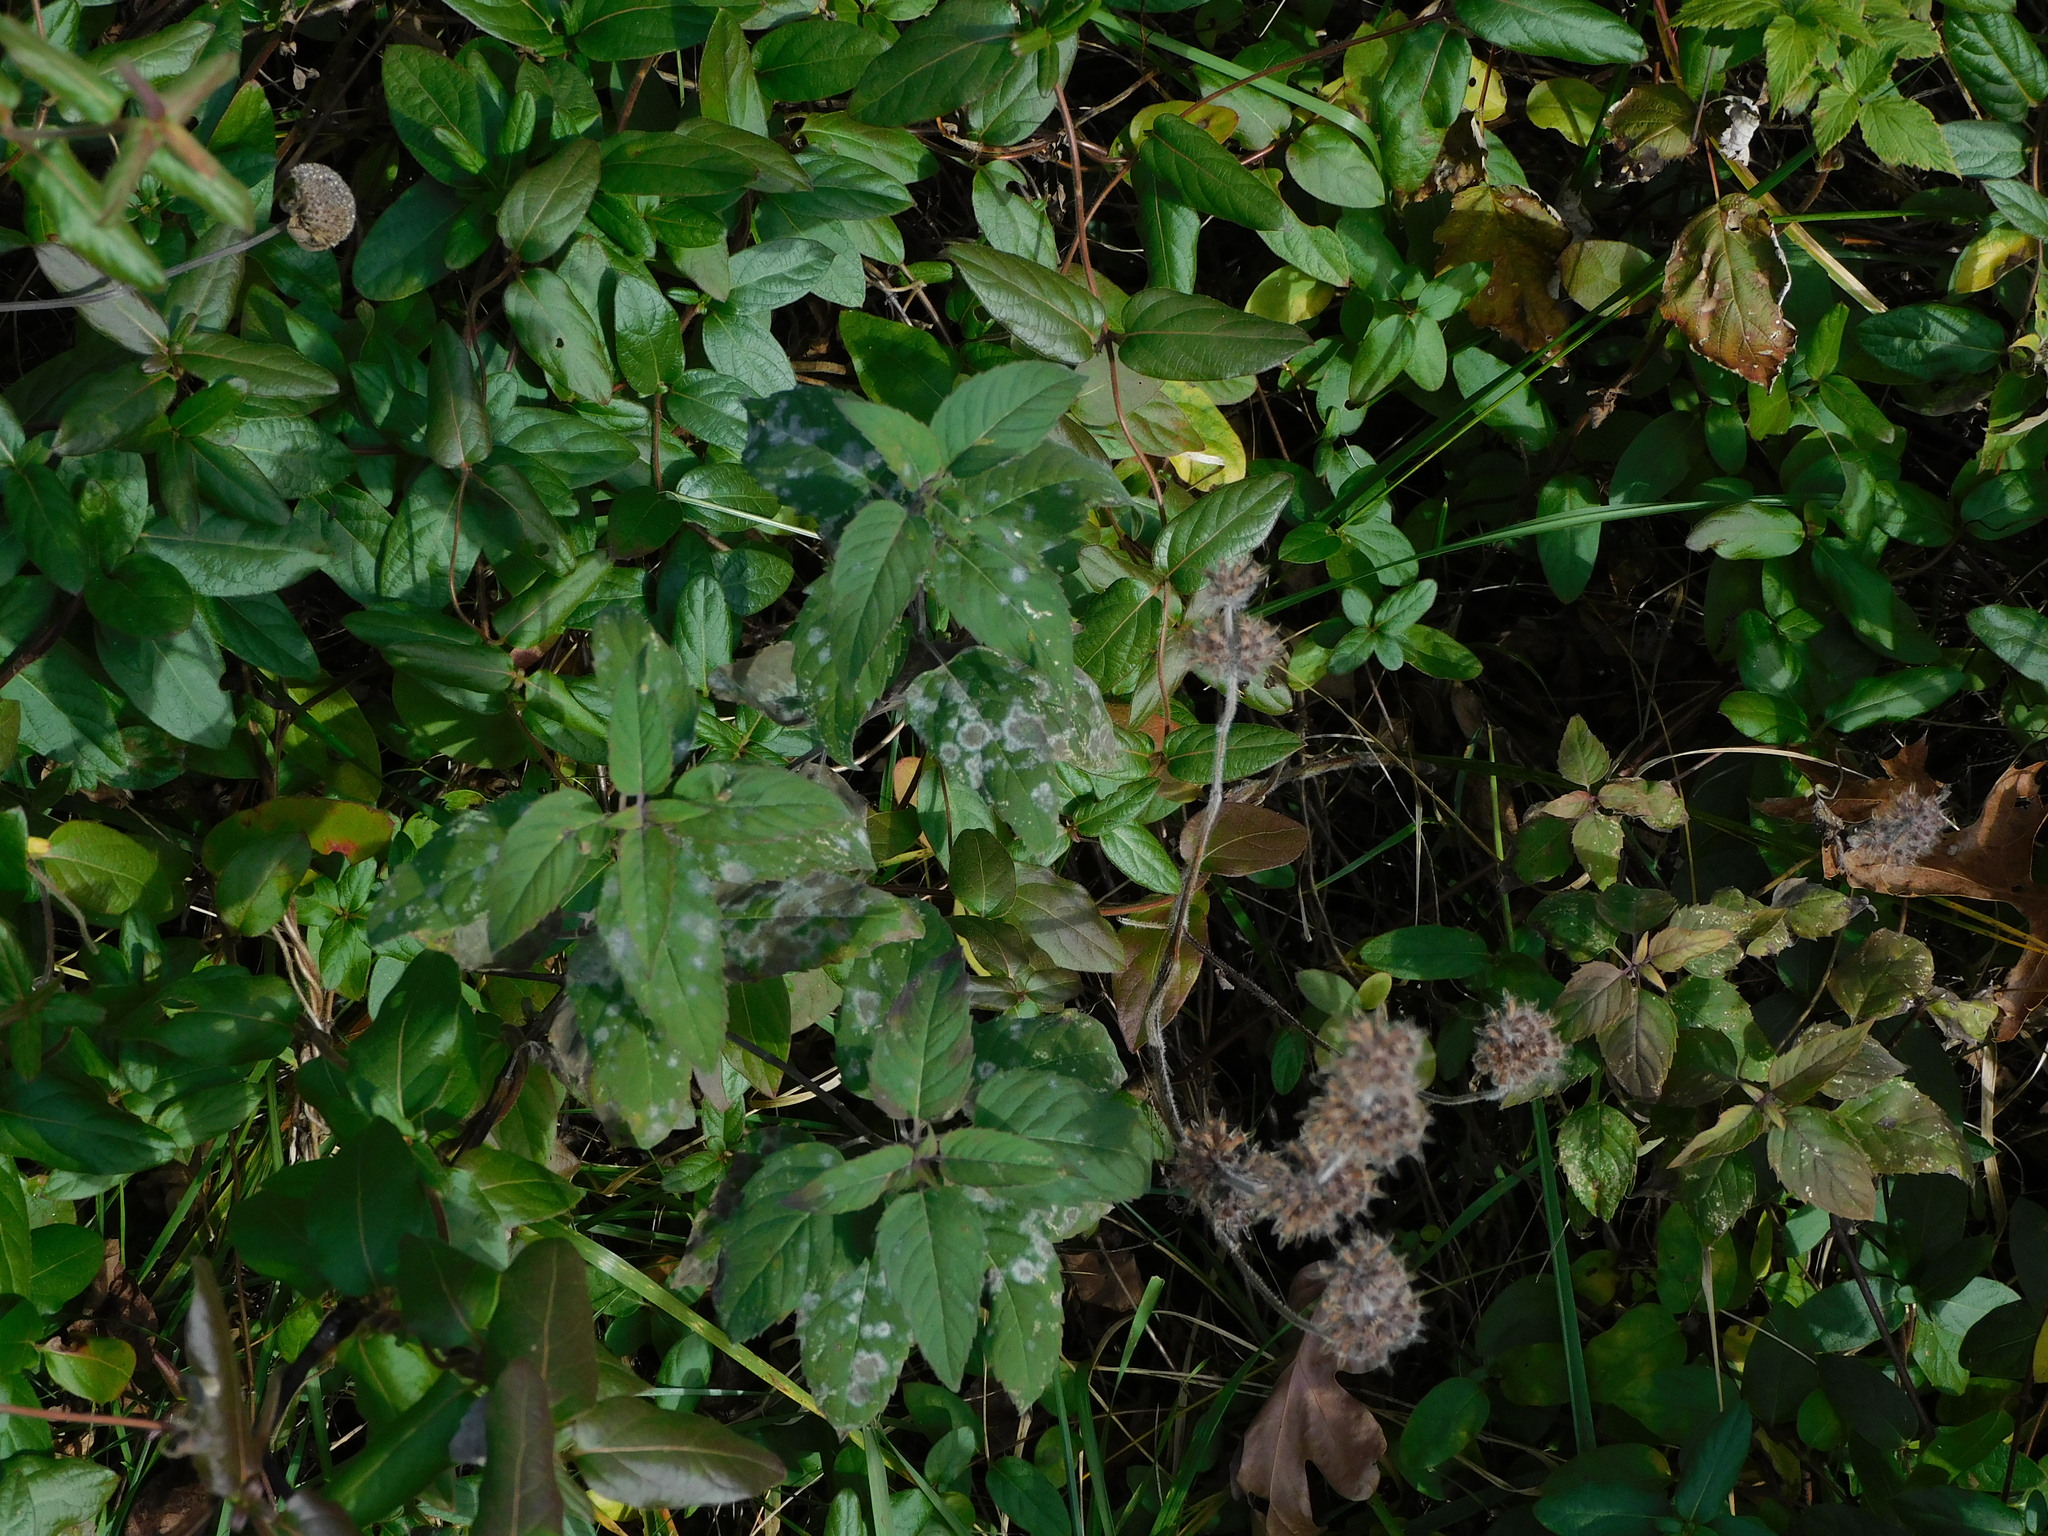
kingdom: Fungi
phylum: Ascomycota
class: Leotiomycetes
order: Helotiales
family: Erysiphaceae
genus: Golovinomyces
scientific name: Golovinomyces monardae
